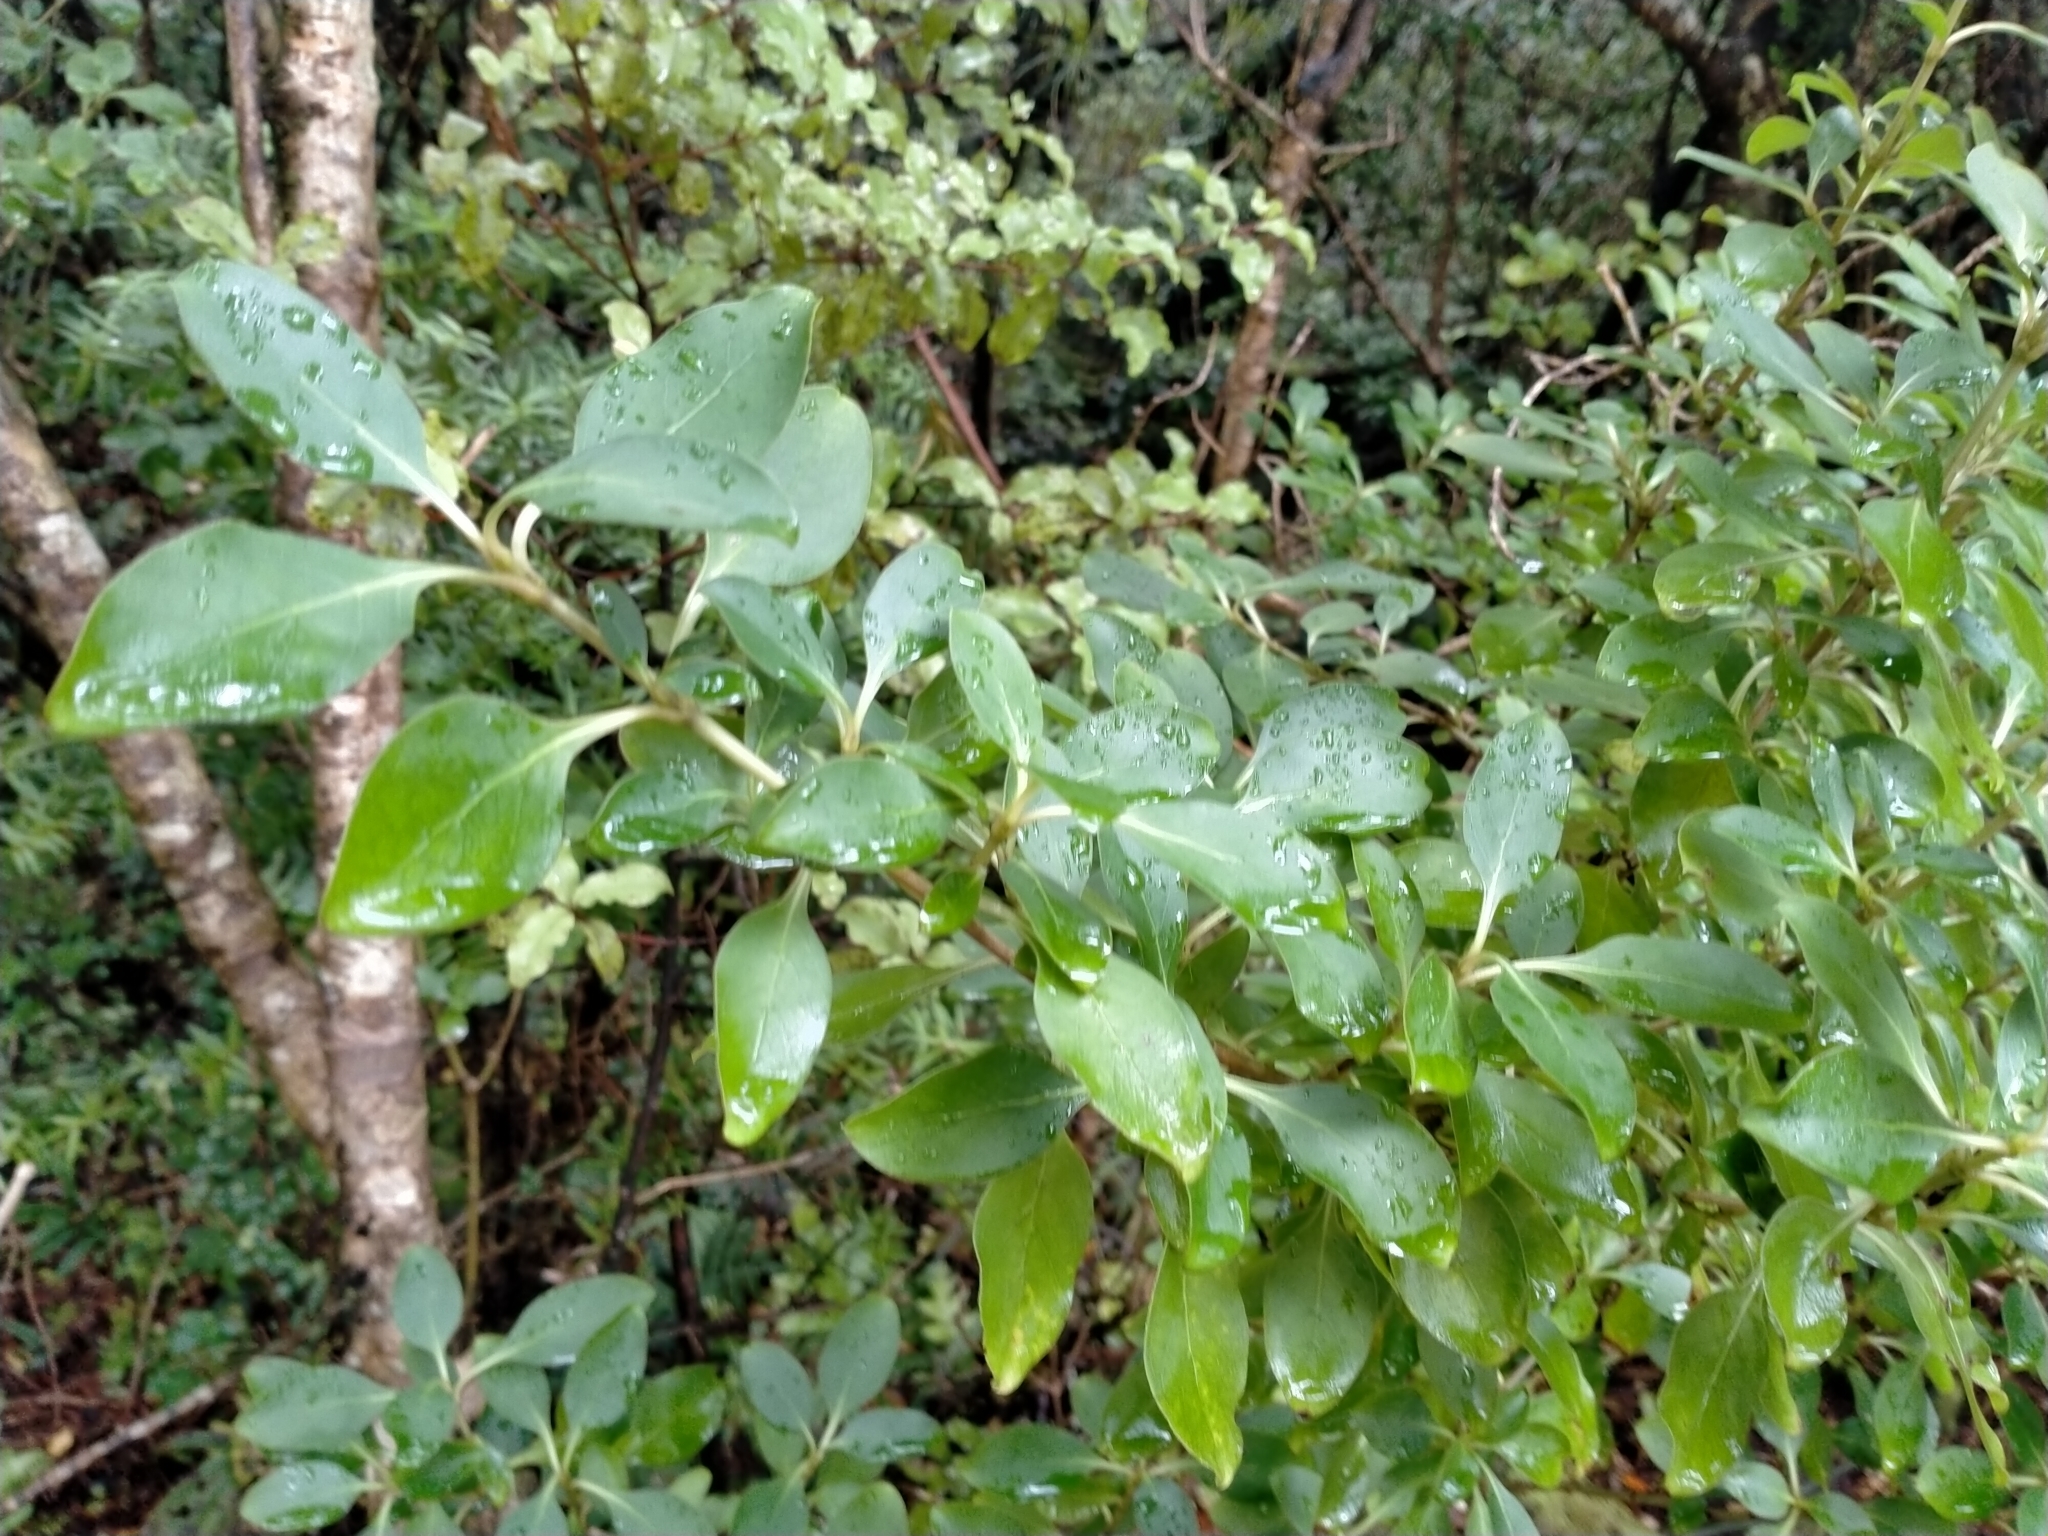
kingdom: Plantae
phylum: Tracheophyta
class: Magnoliopsida
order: Gentianales
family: Rubiaceae
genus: Coprosma
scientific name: Coprosma foetidissima
